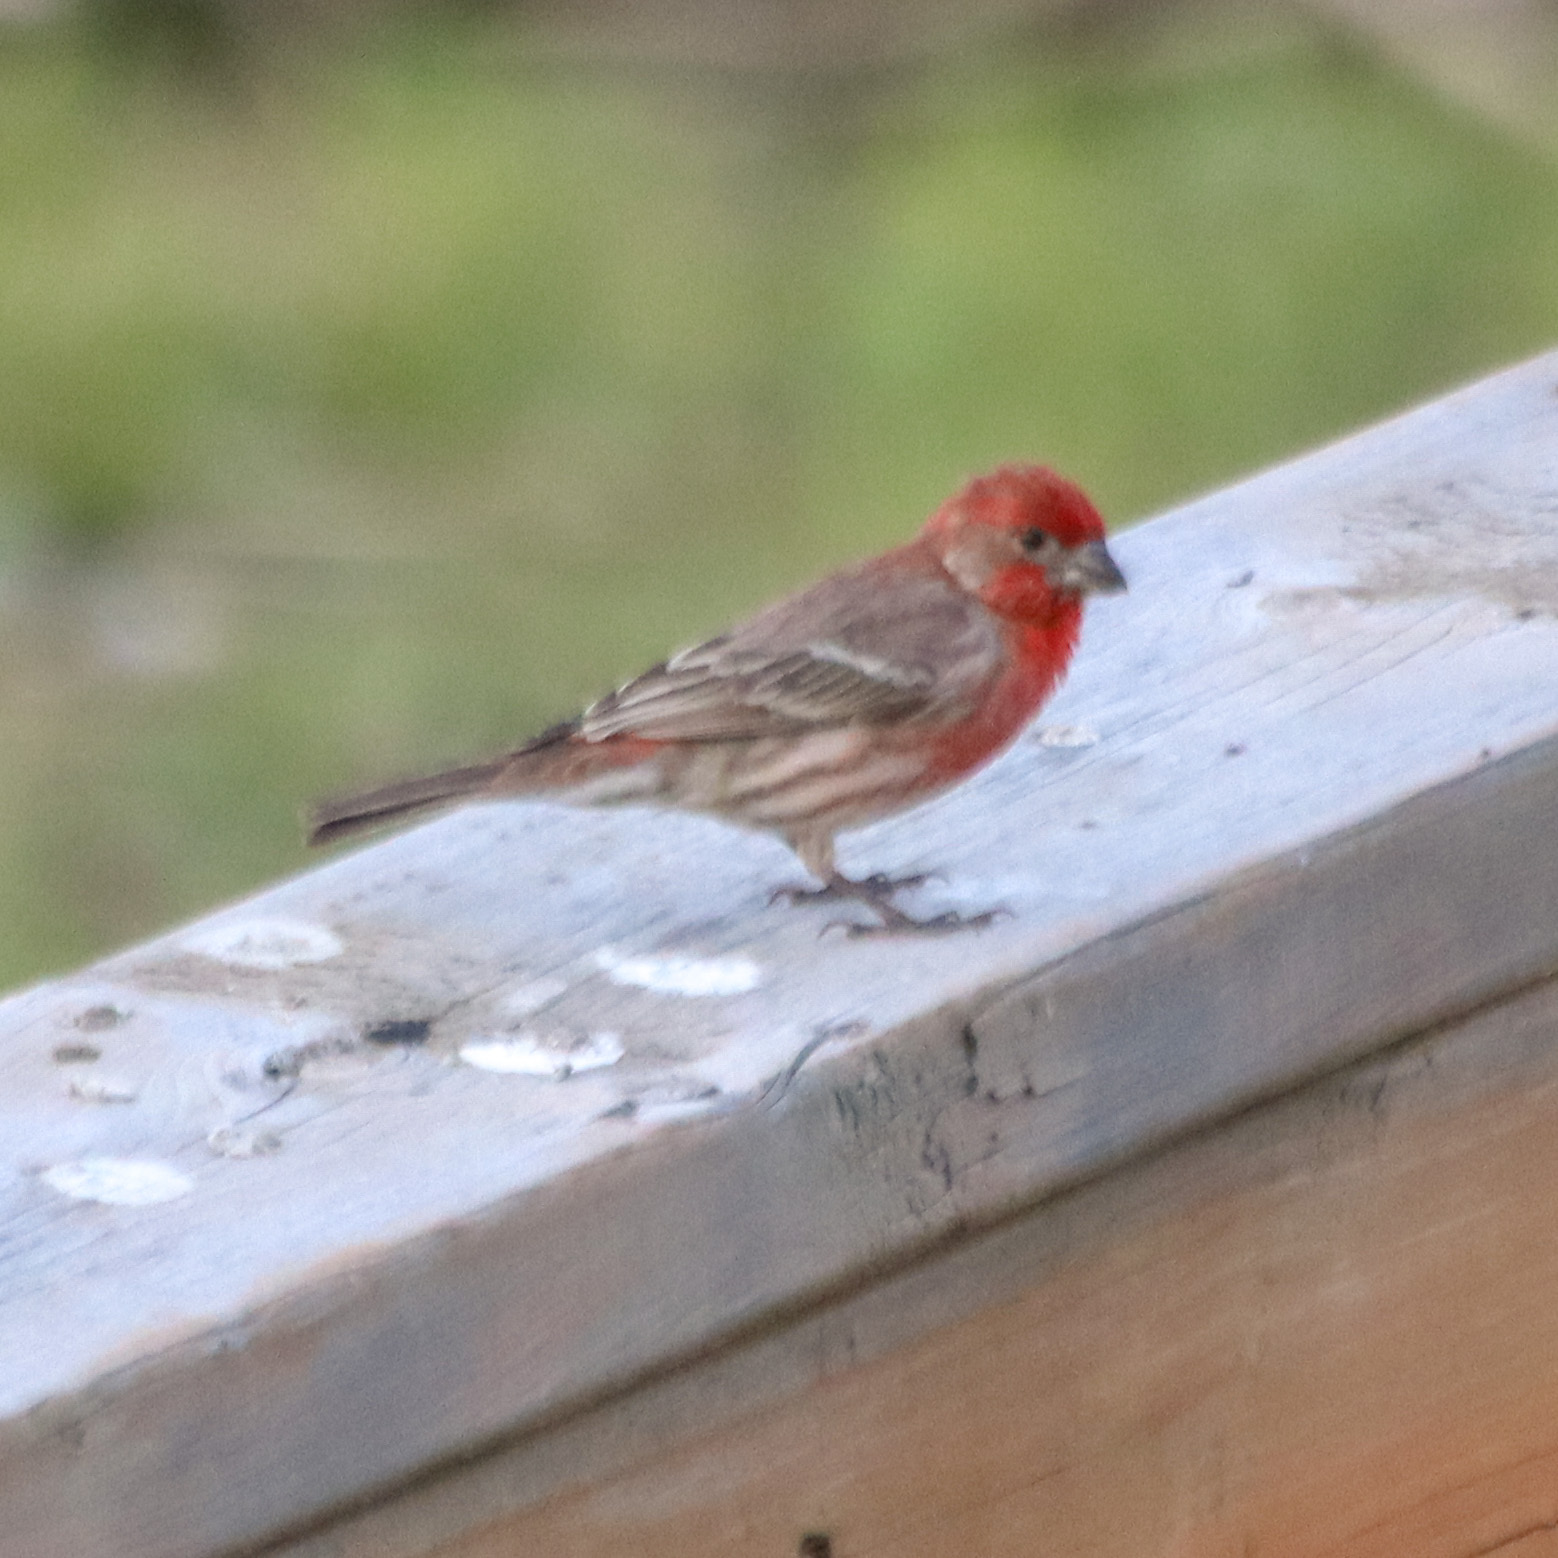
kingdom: Animalia
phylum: Chordata
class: Aves
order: Passeriformes
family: Fringillidae
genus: Haemorhous
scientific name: Haemorhous mexicanus
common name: House finch
